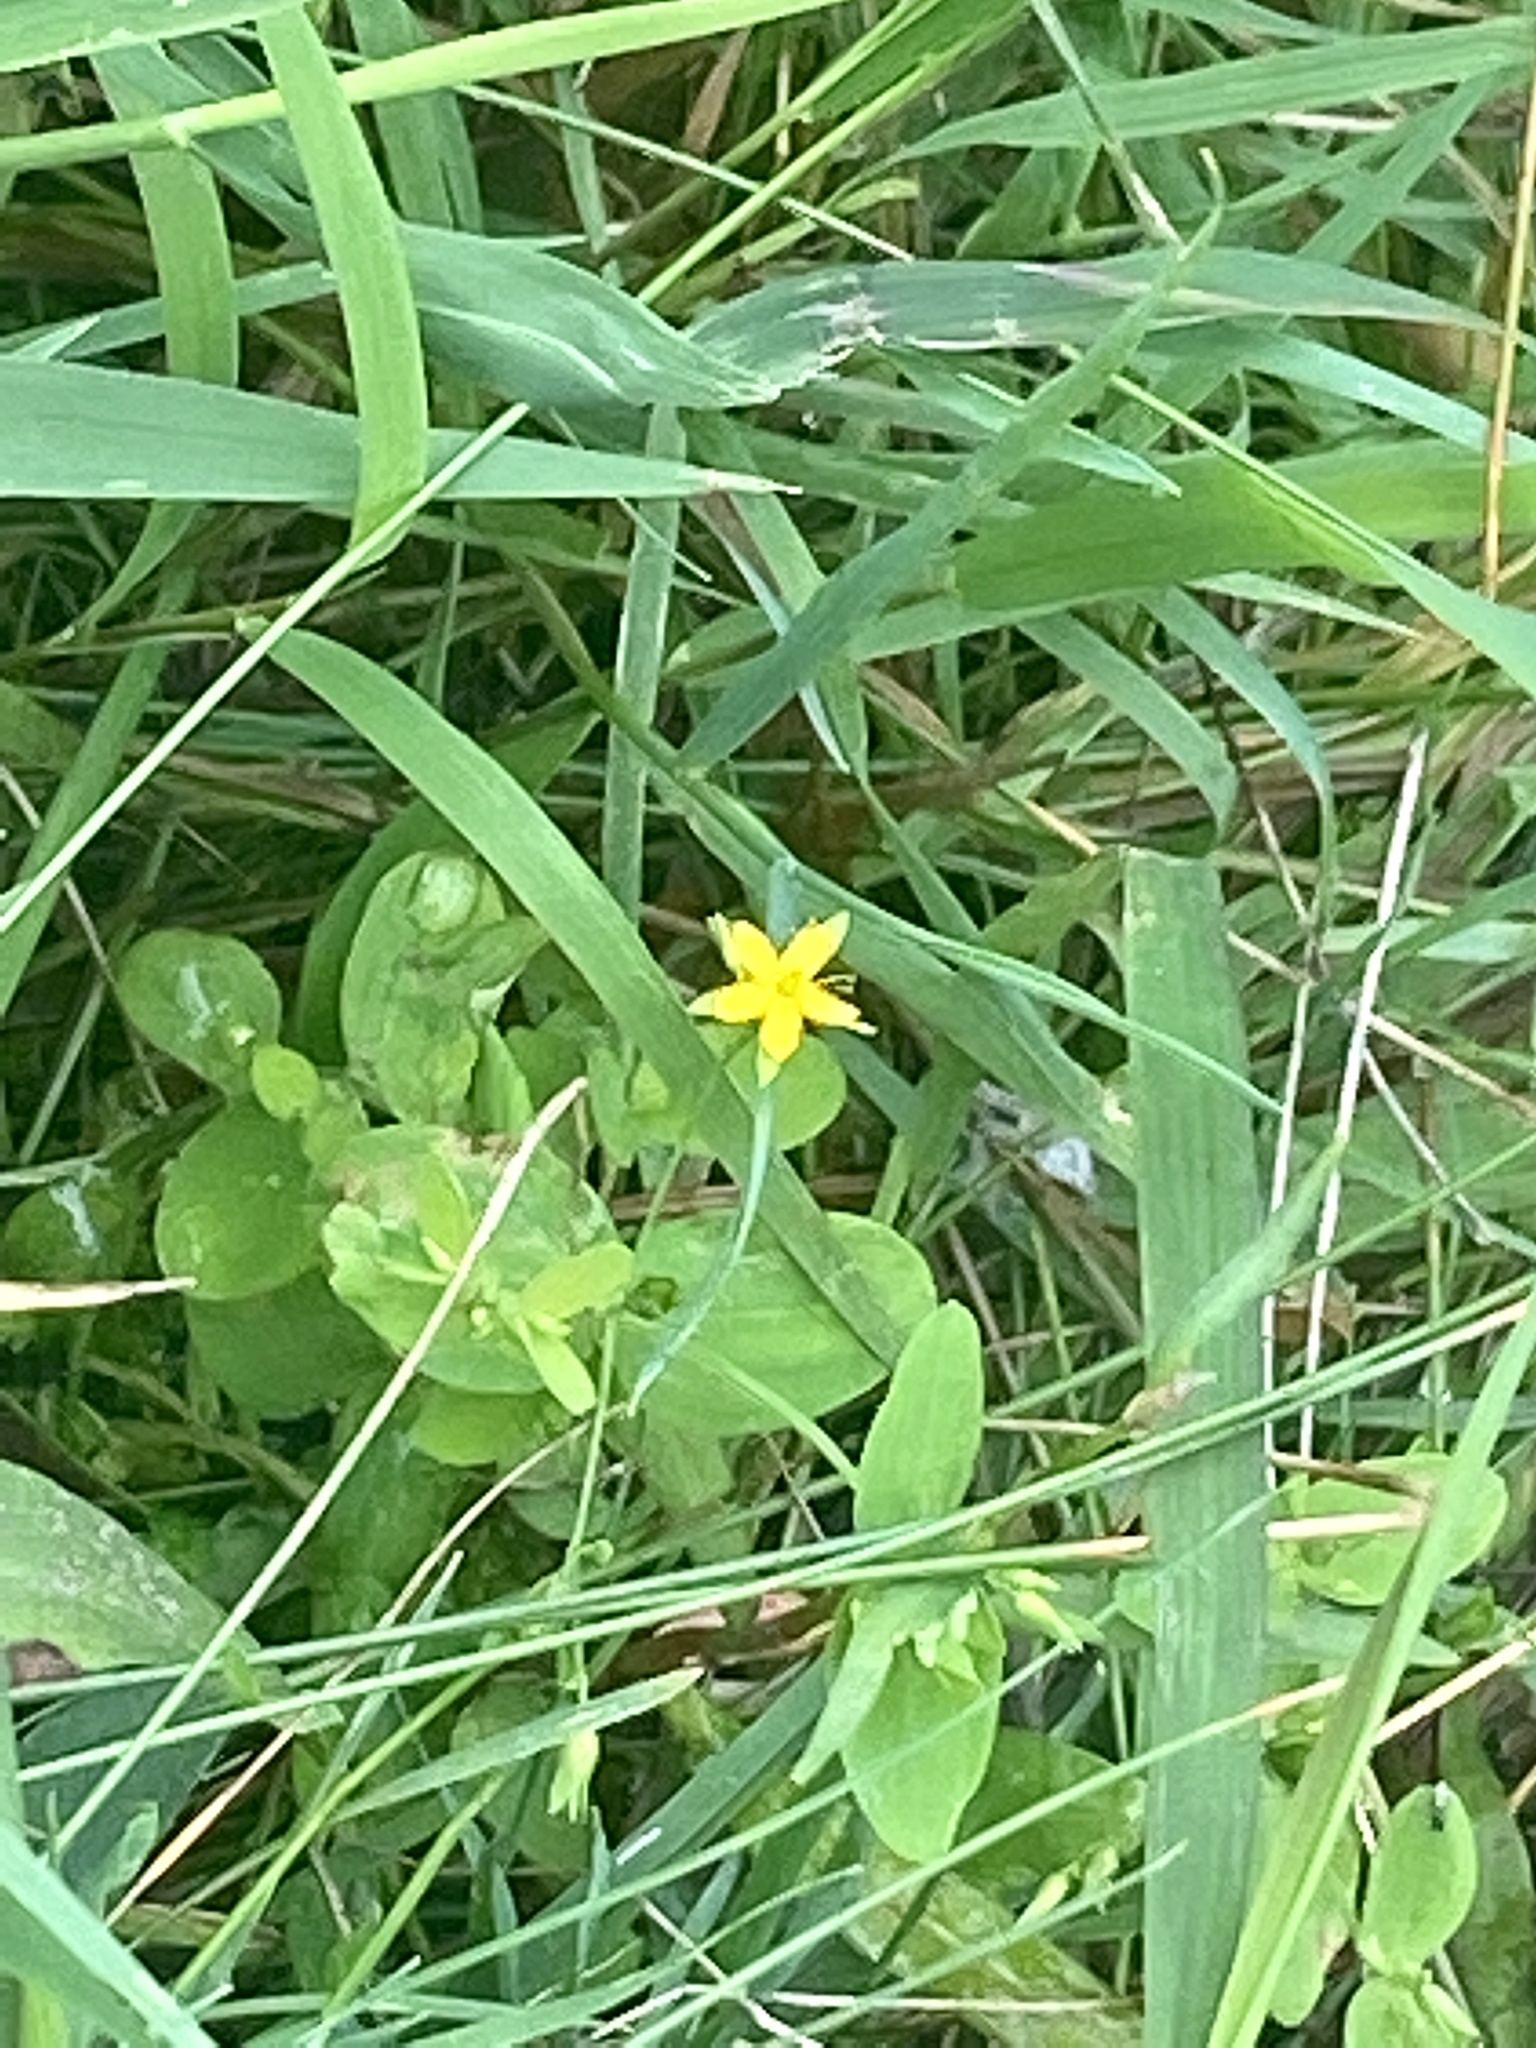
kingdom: Plantae
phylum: Tracheophyta
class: Magnoliopsida
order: Malpighiales
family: Hypericaceae
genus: Hypericum
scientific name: Hypericum mutilum
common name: Dwarf st. john's-wort
